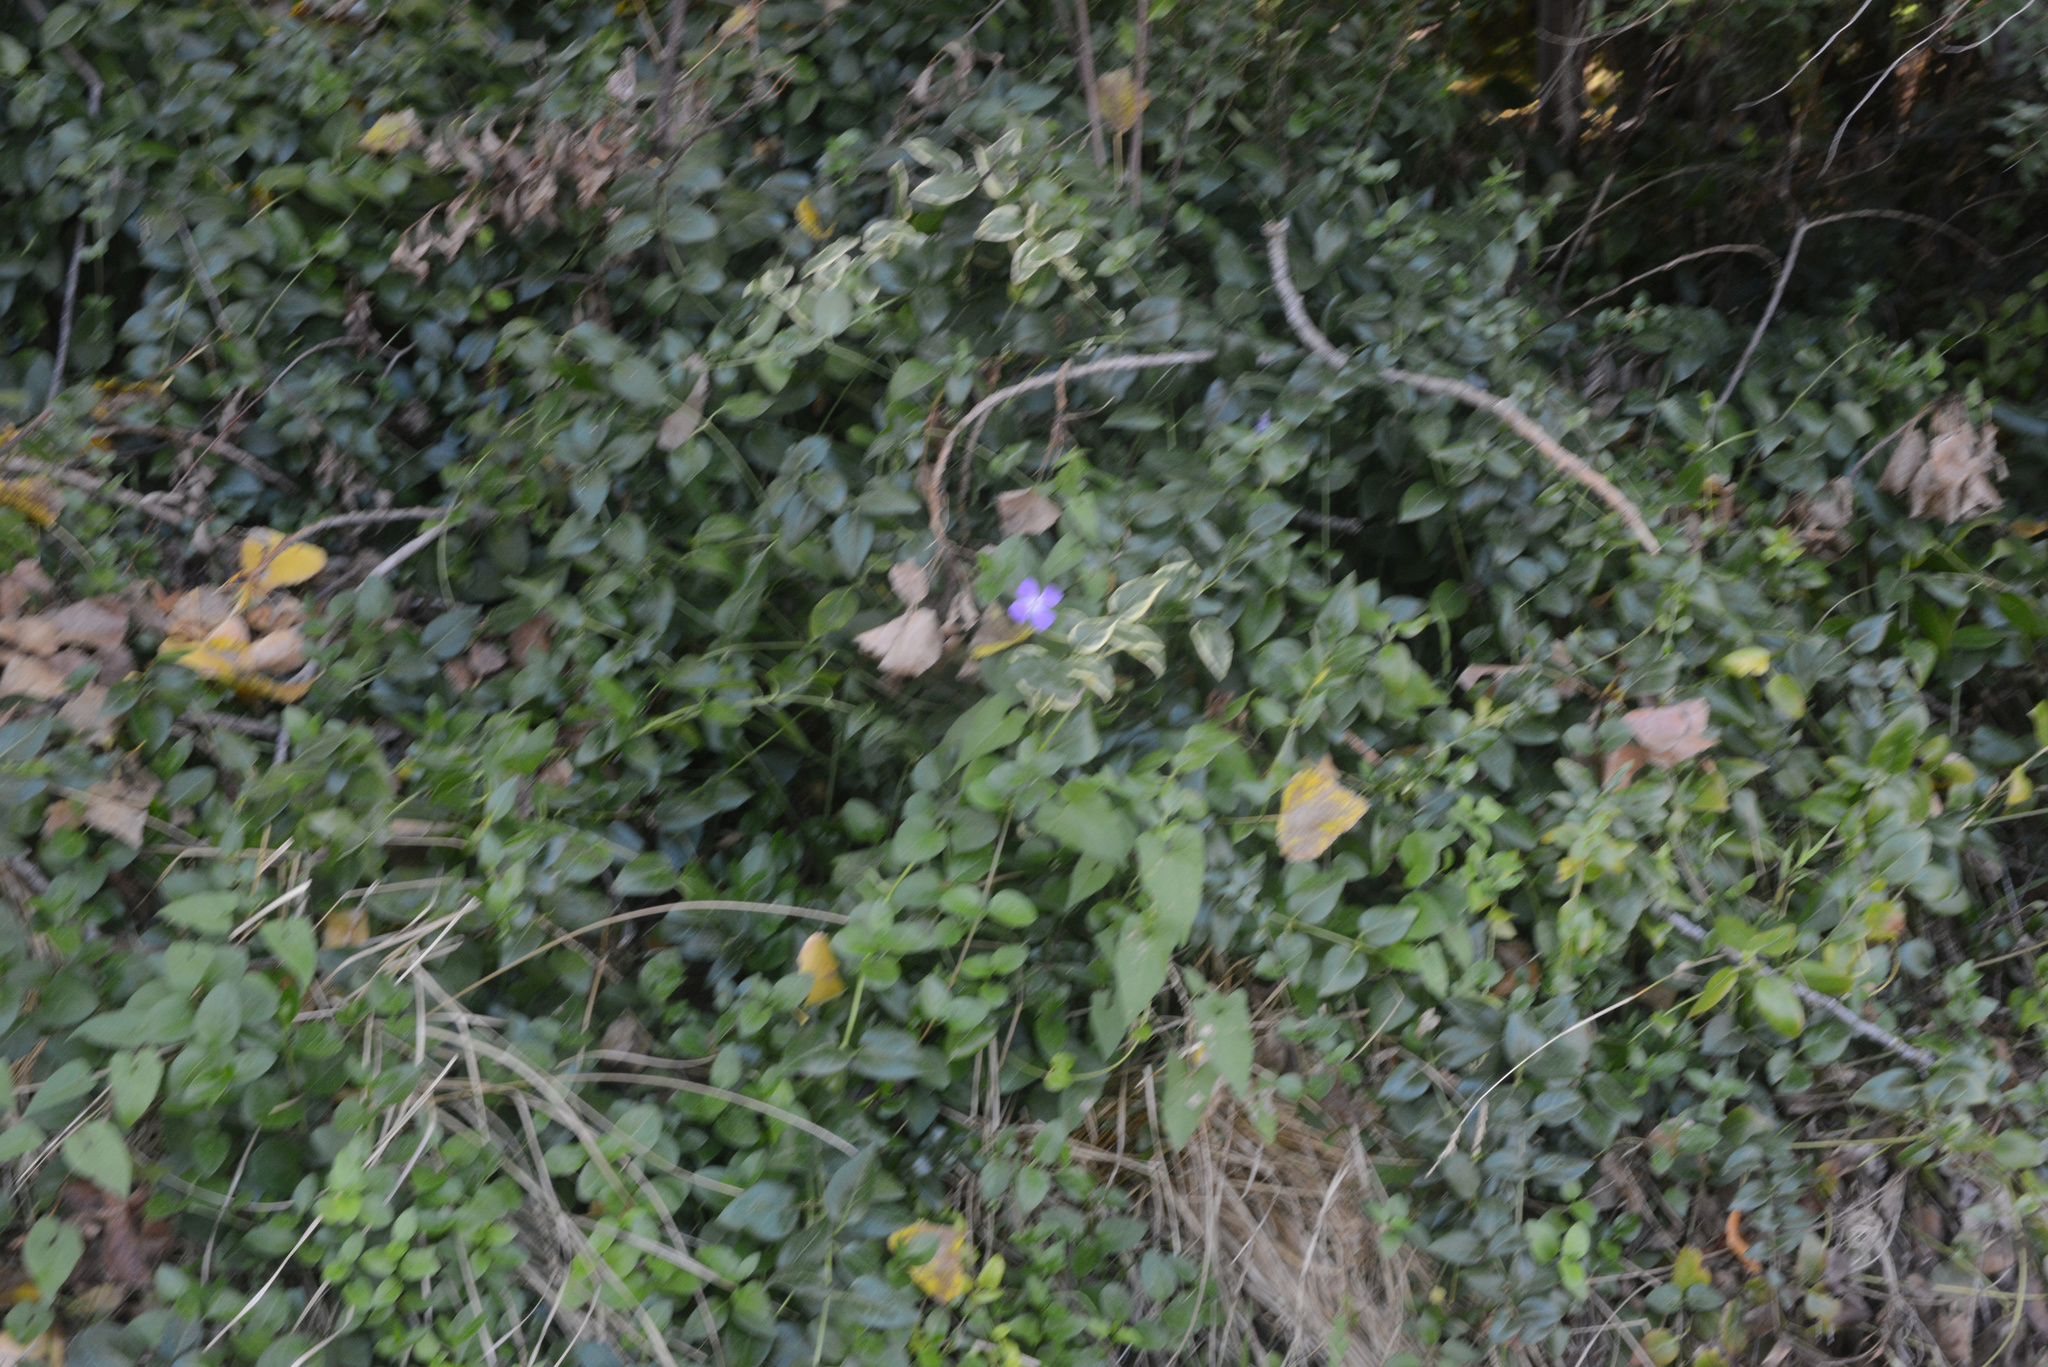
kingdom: Plantae
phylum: Tracheophyta
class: Magnoliopsida
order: Gentianales
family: Apocynaceae
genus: Vinca
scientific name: Vinca major
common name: Greater periwinkle
